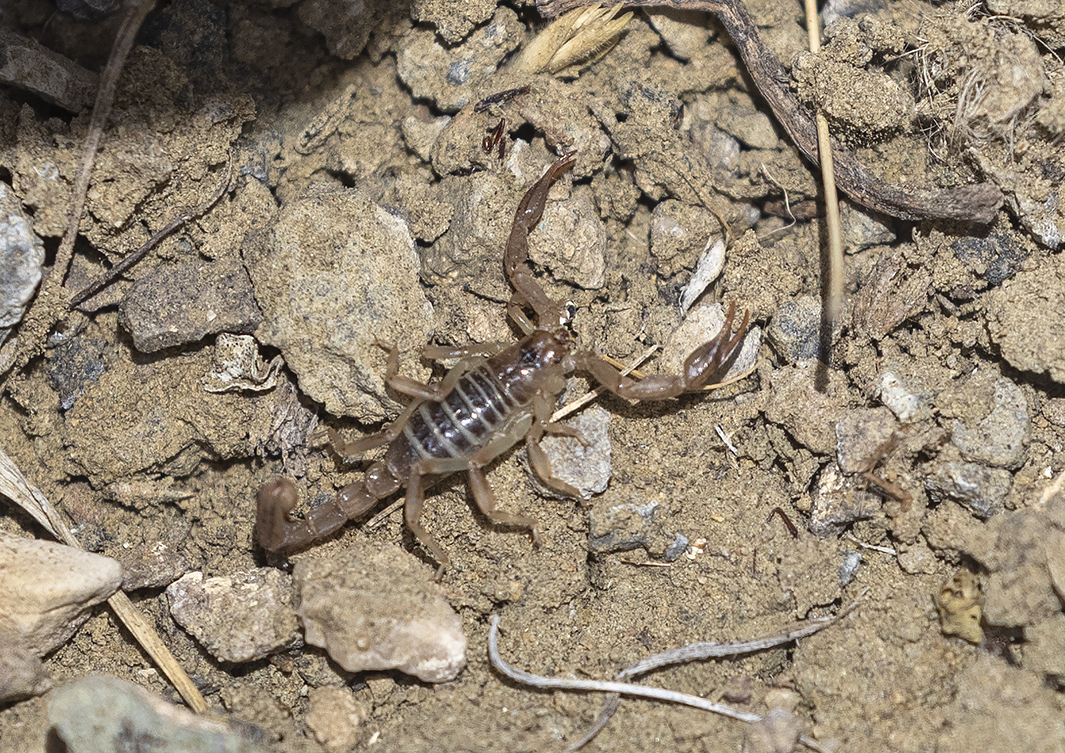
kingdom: Animalia
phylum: Arthropoda
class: Arachnida
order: Scorpiones
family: Vaejovidae
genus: Paruroctonus
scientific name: Paruroctonus boreus
